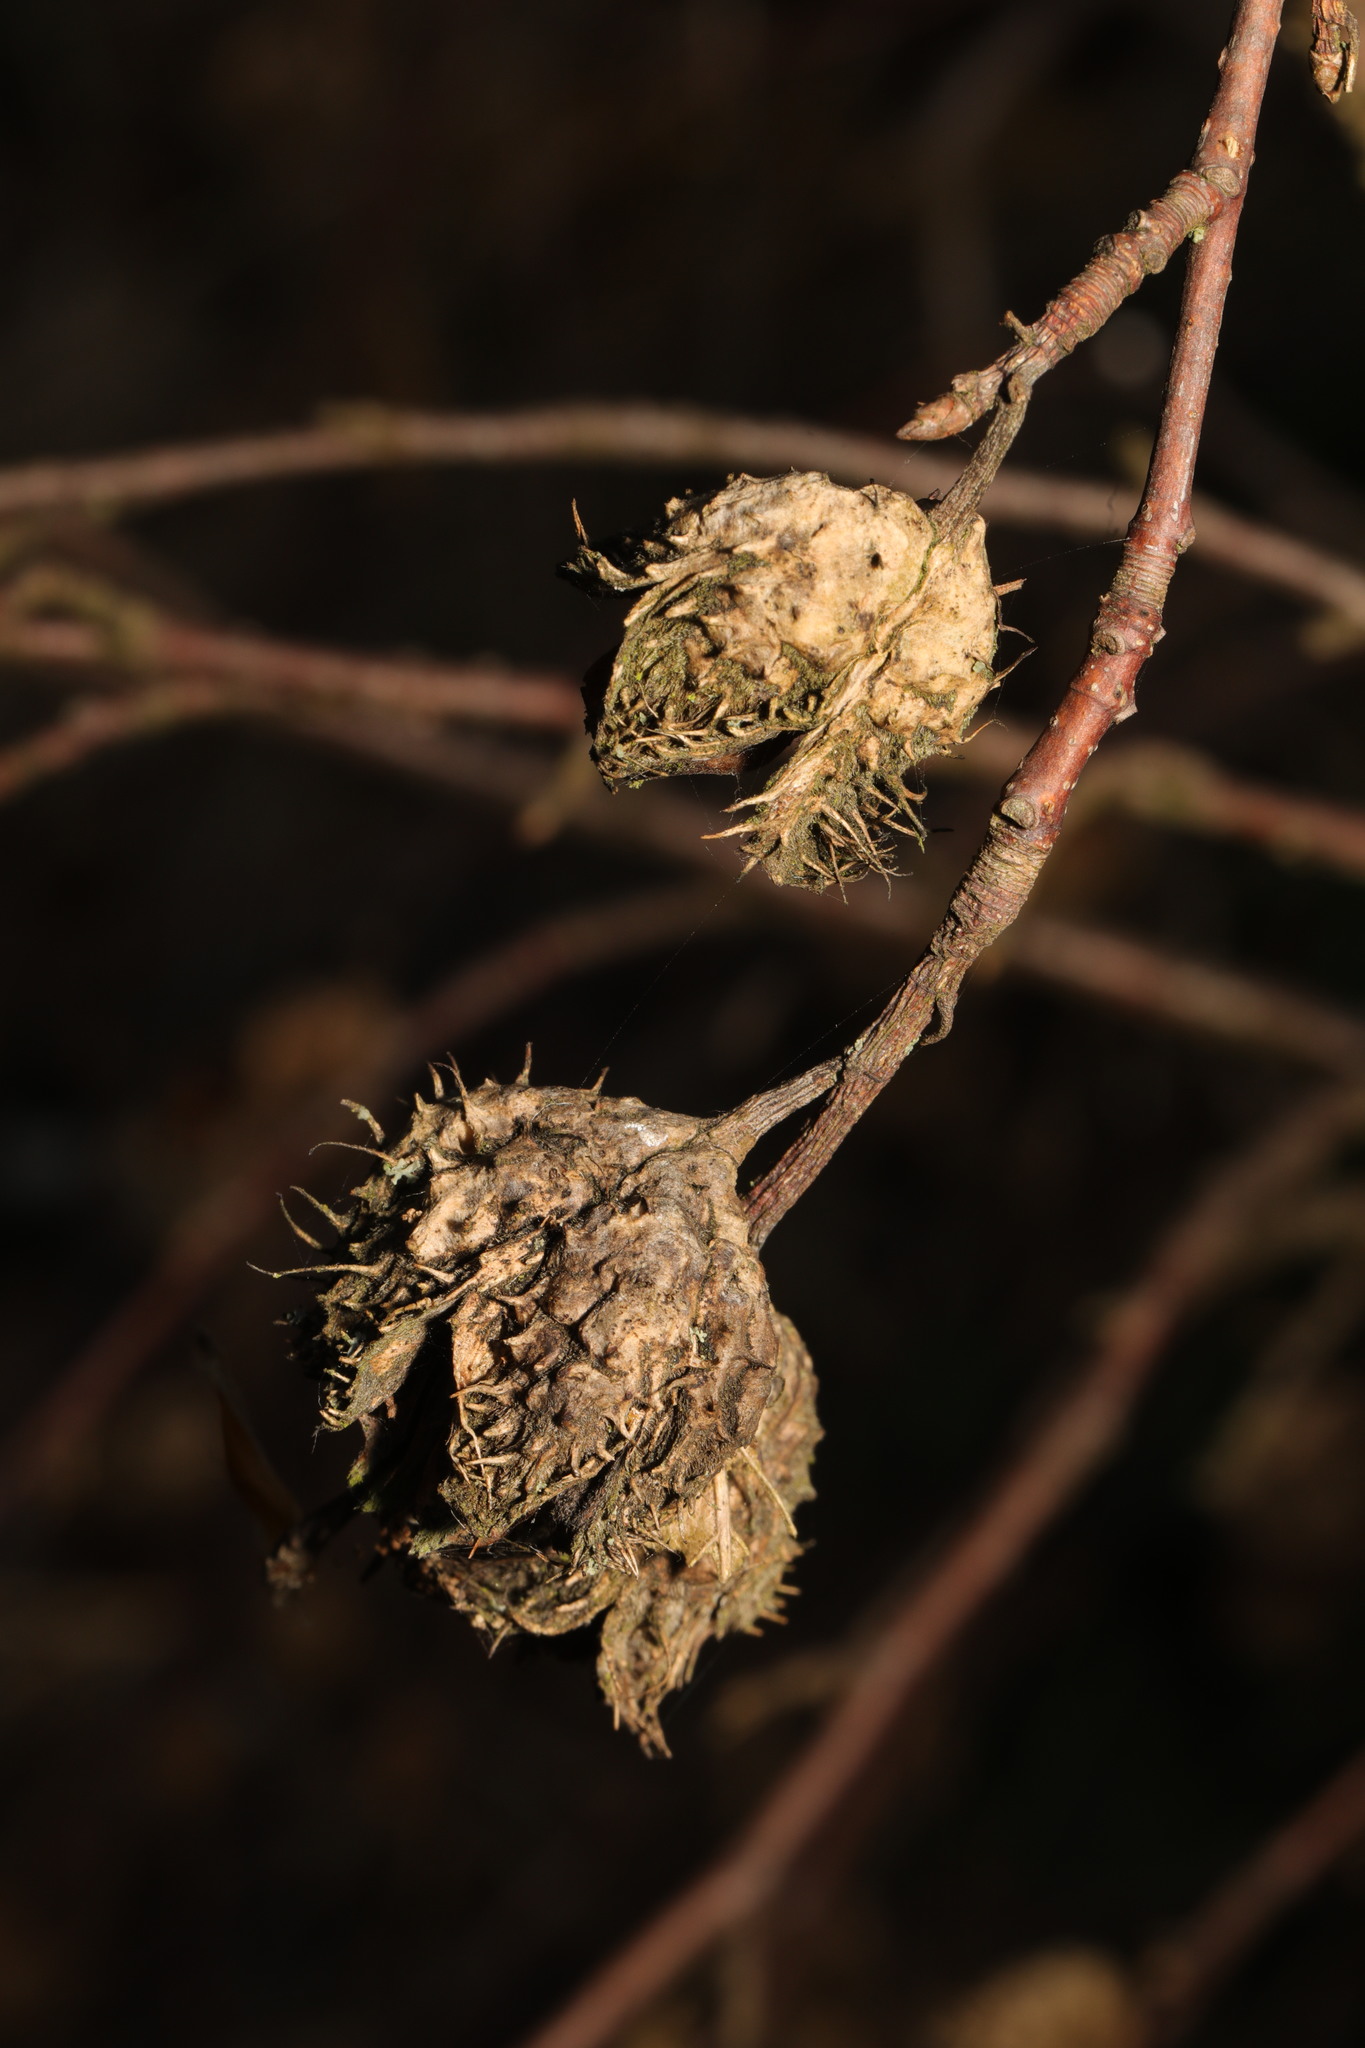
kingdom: Plantae
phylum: Tracheophyta
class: Magnoliopsida
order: Fagales
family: Fagaceae
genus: Fagus
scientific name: Fagus sylvatica
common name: Beech
